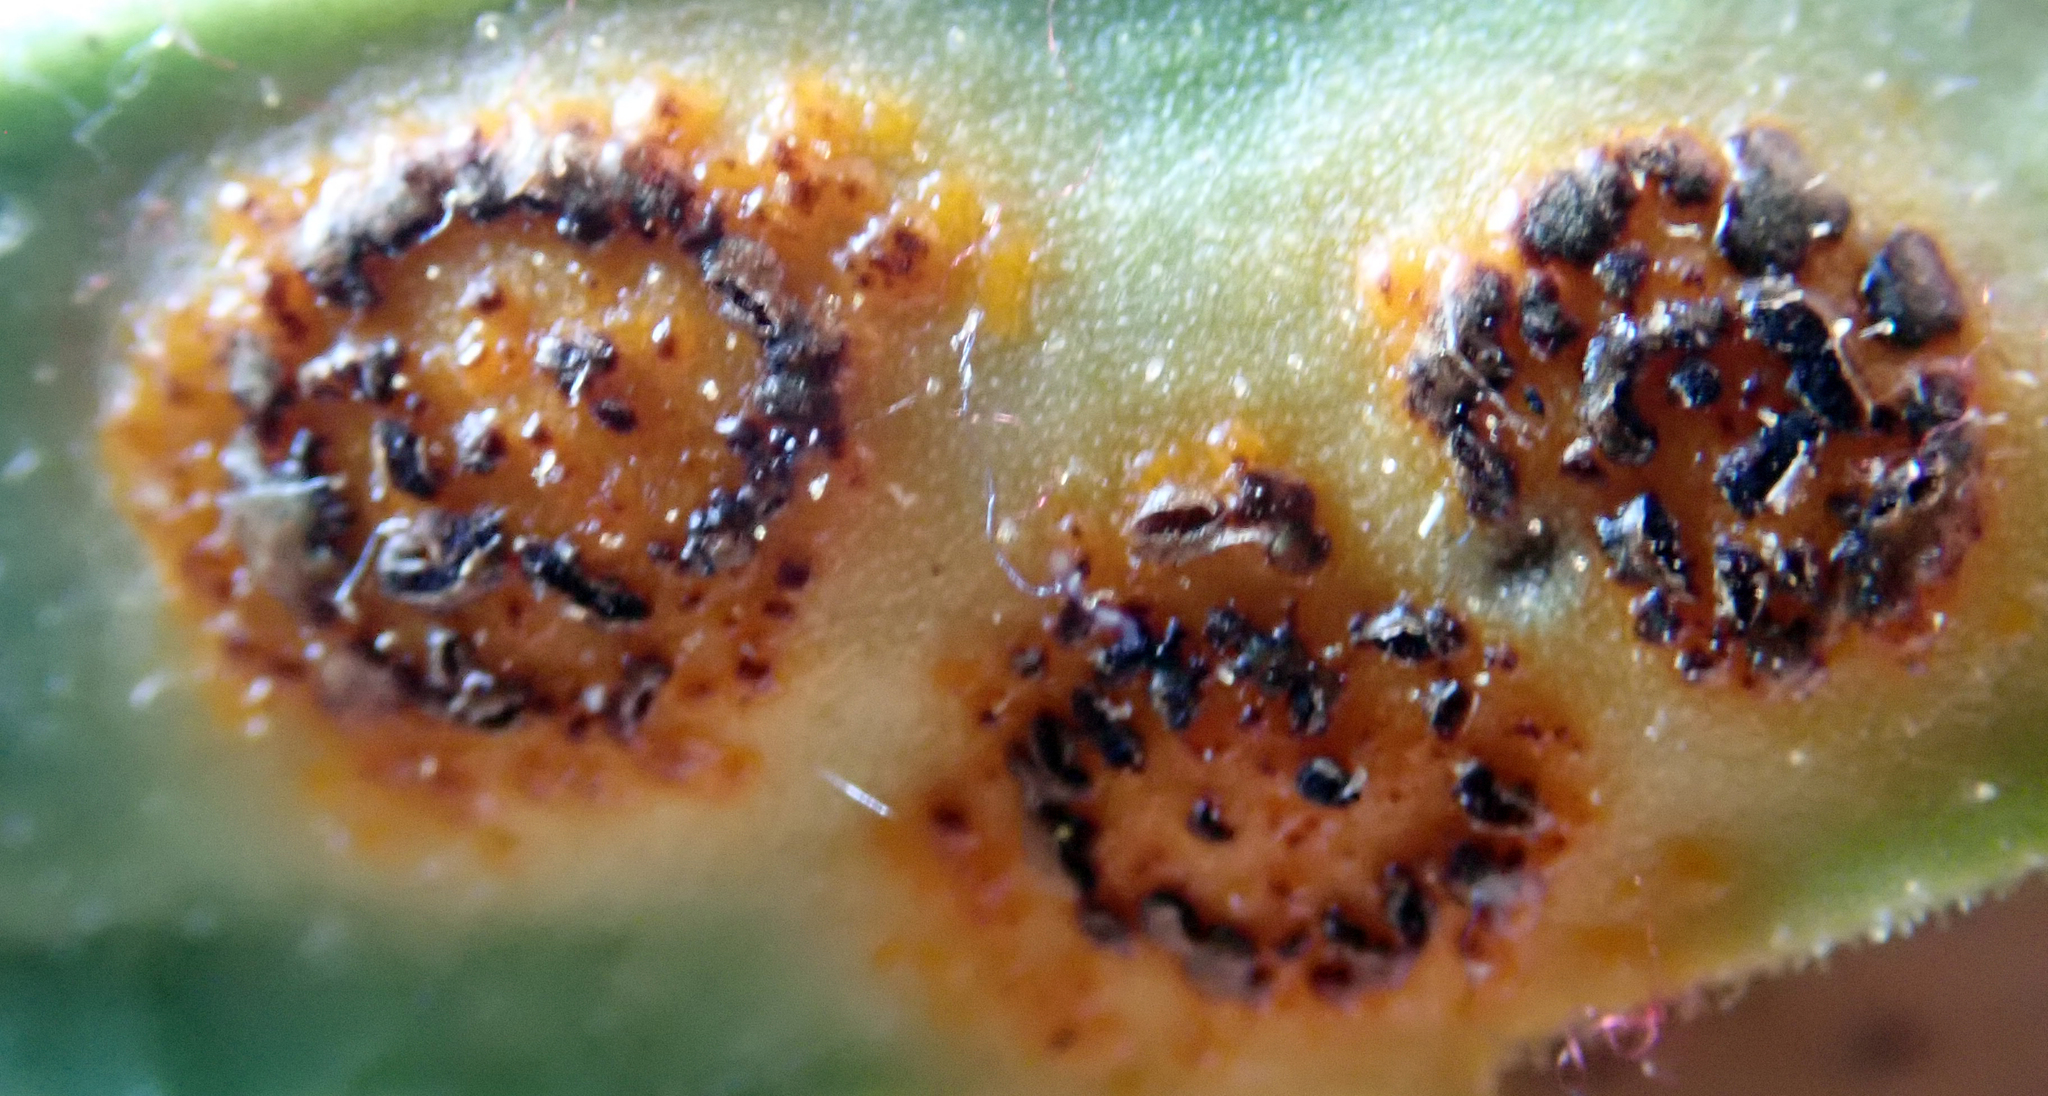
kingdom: Fungi
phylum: Basidiomycota
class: Pucciniomycetes
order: Pucciniales
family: Pucciniaceae
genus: Puccinia
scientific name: Puccinia egmontensis
